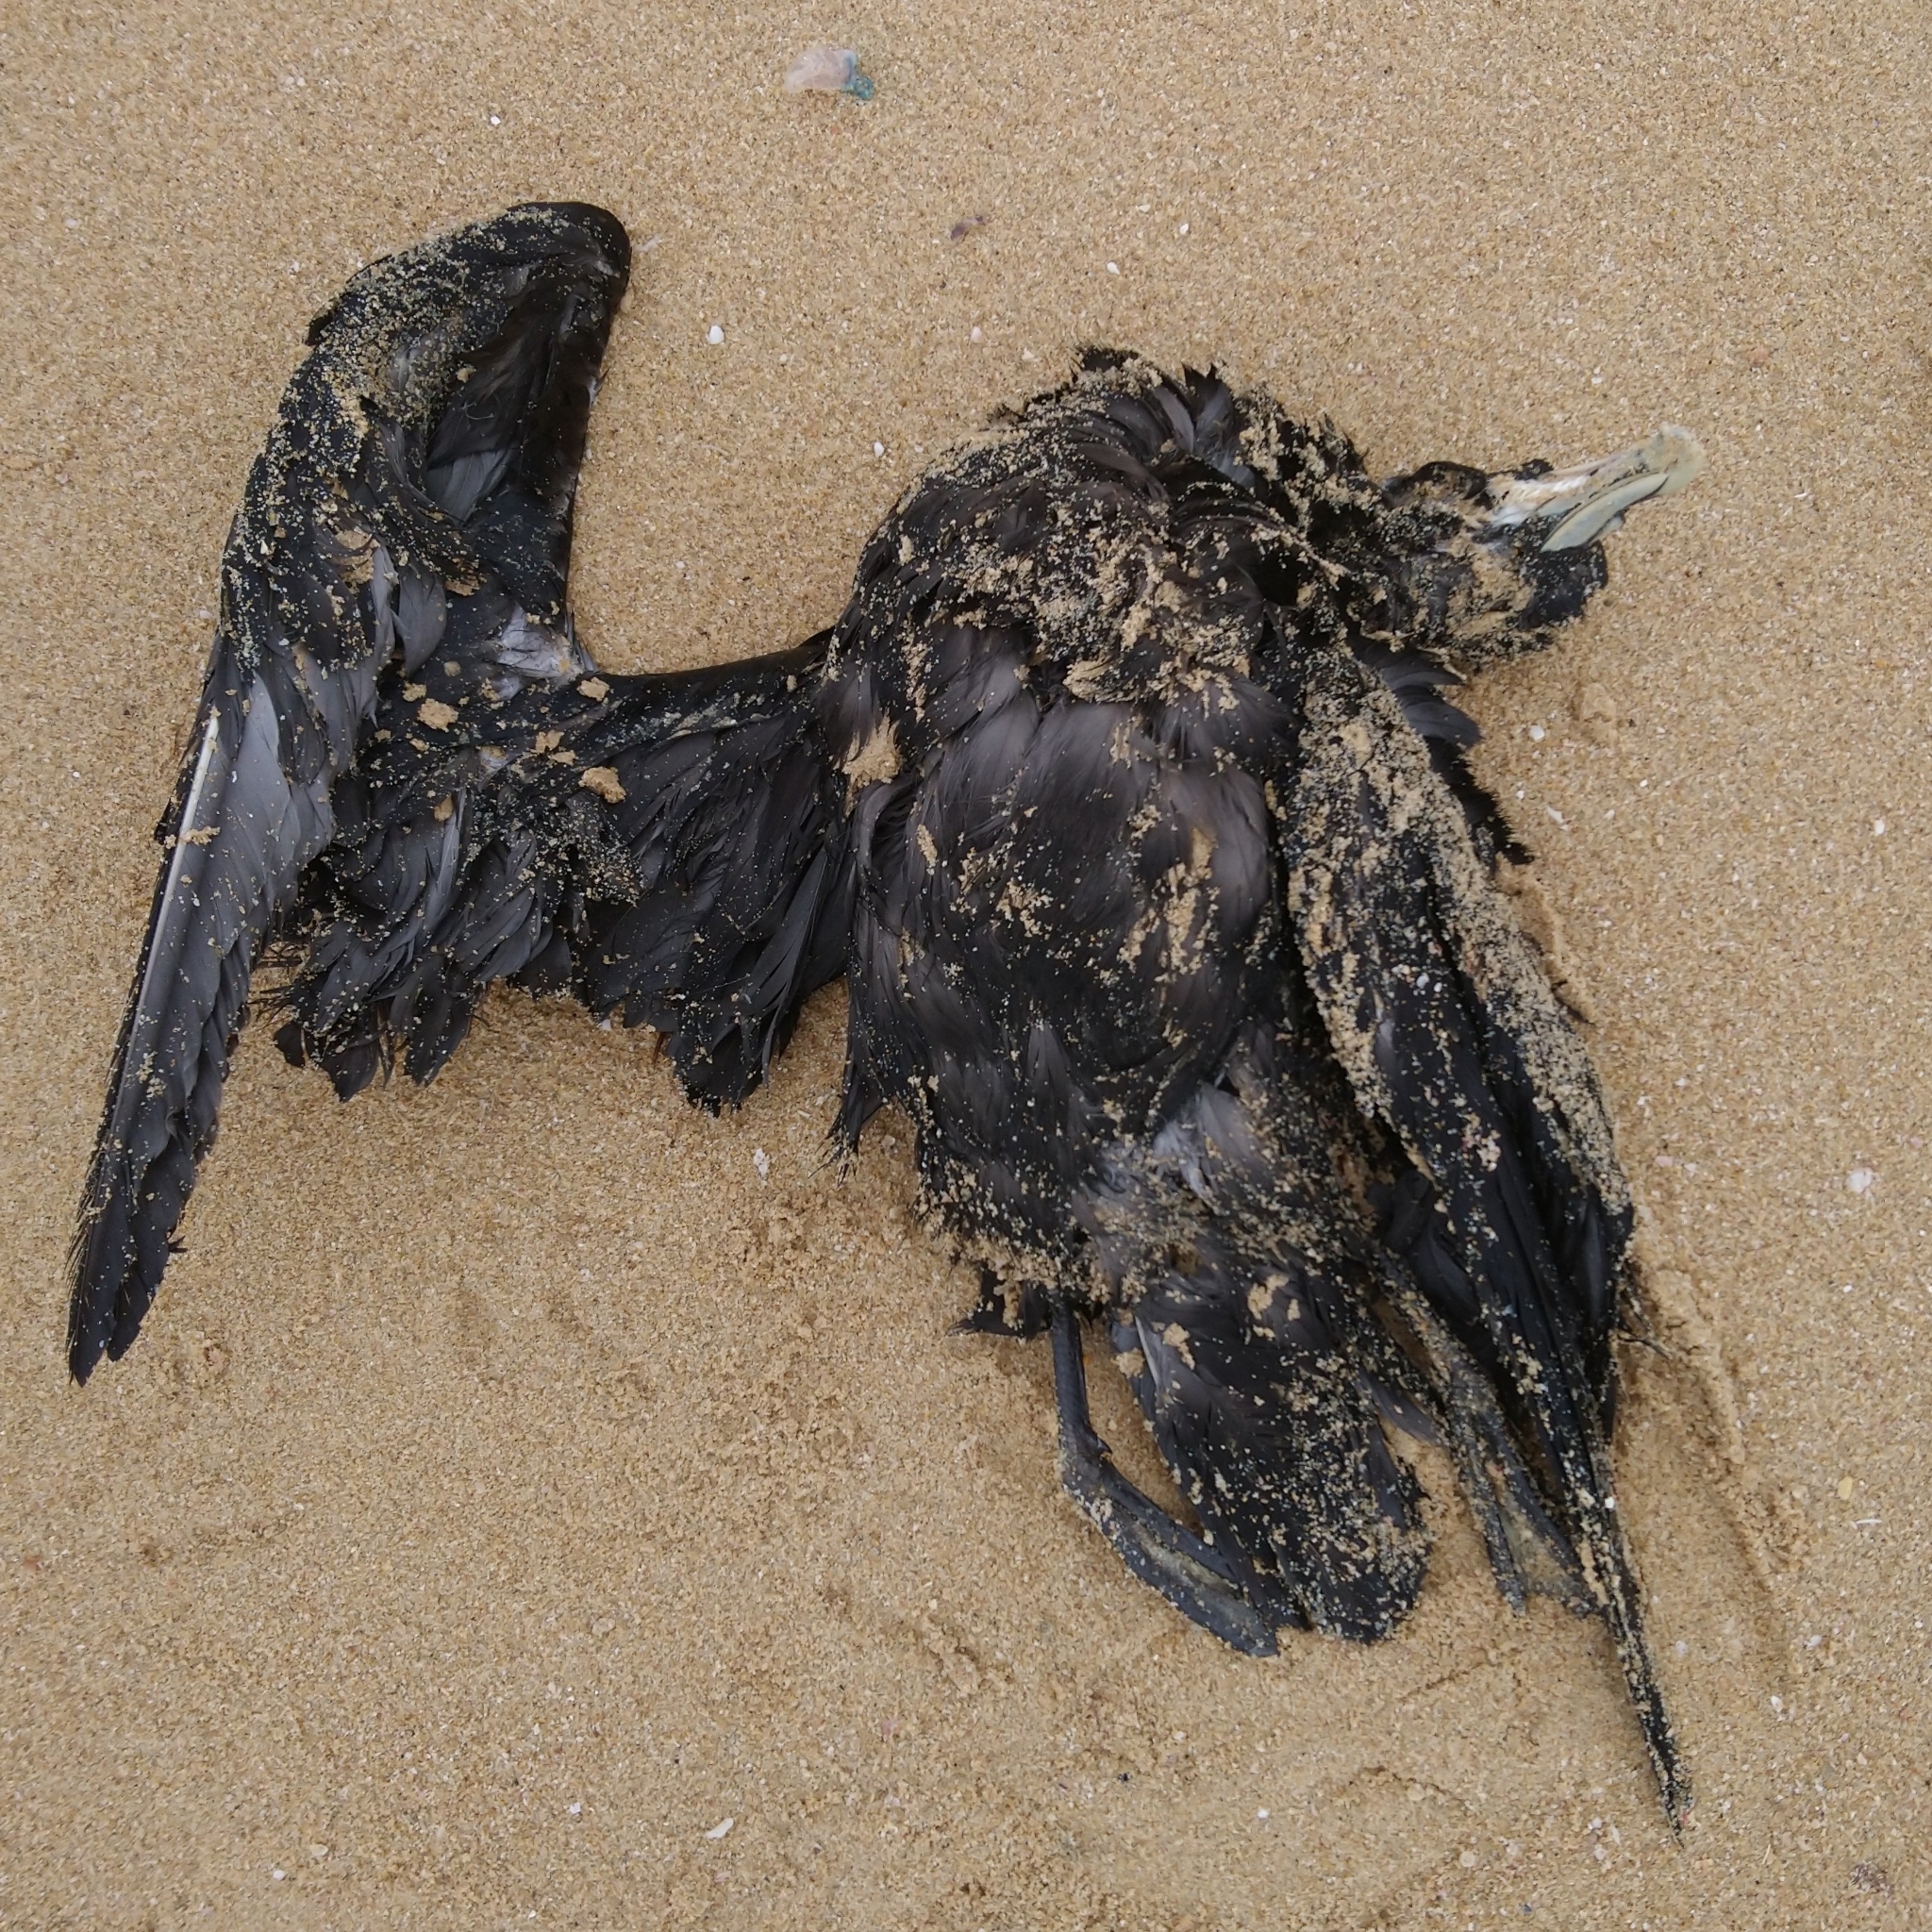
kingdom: Animalia
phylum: Chordata
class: Aves
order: Procellariiformes
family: Procellariidae
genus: Procellaria
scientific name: Procellaria aequinoctialis
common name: White-chinned petrel
